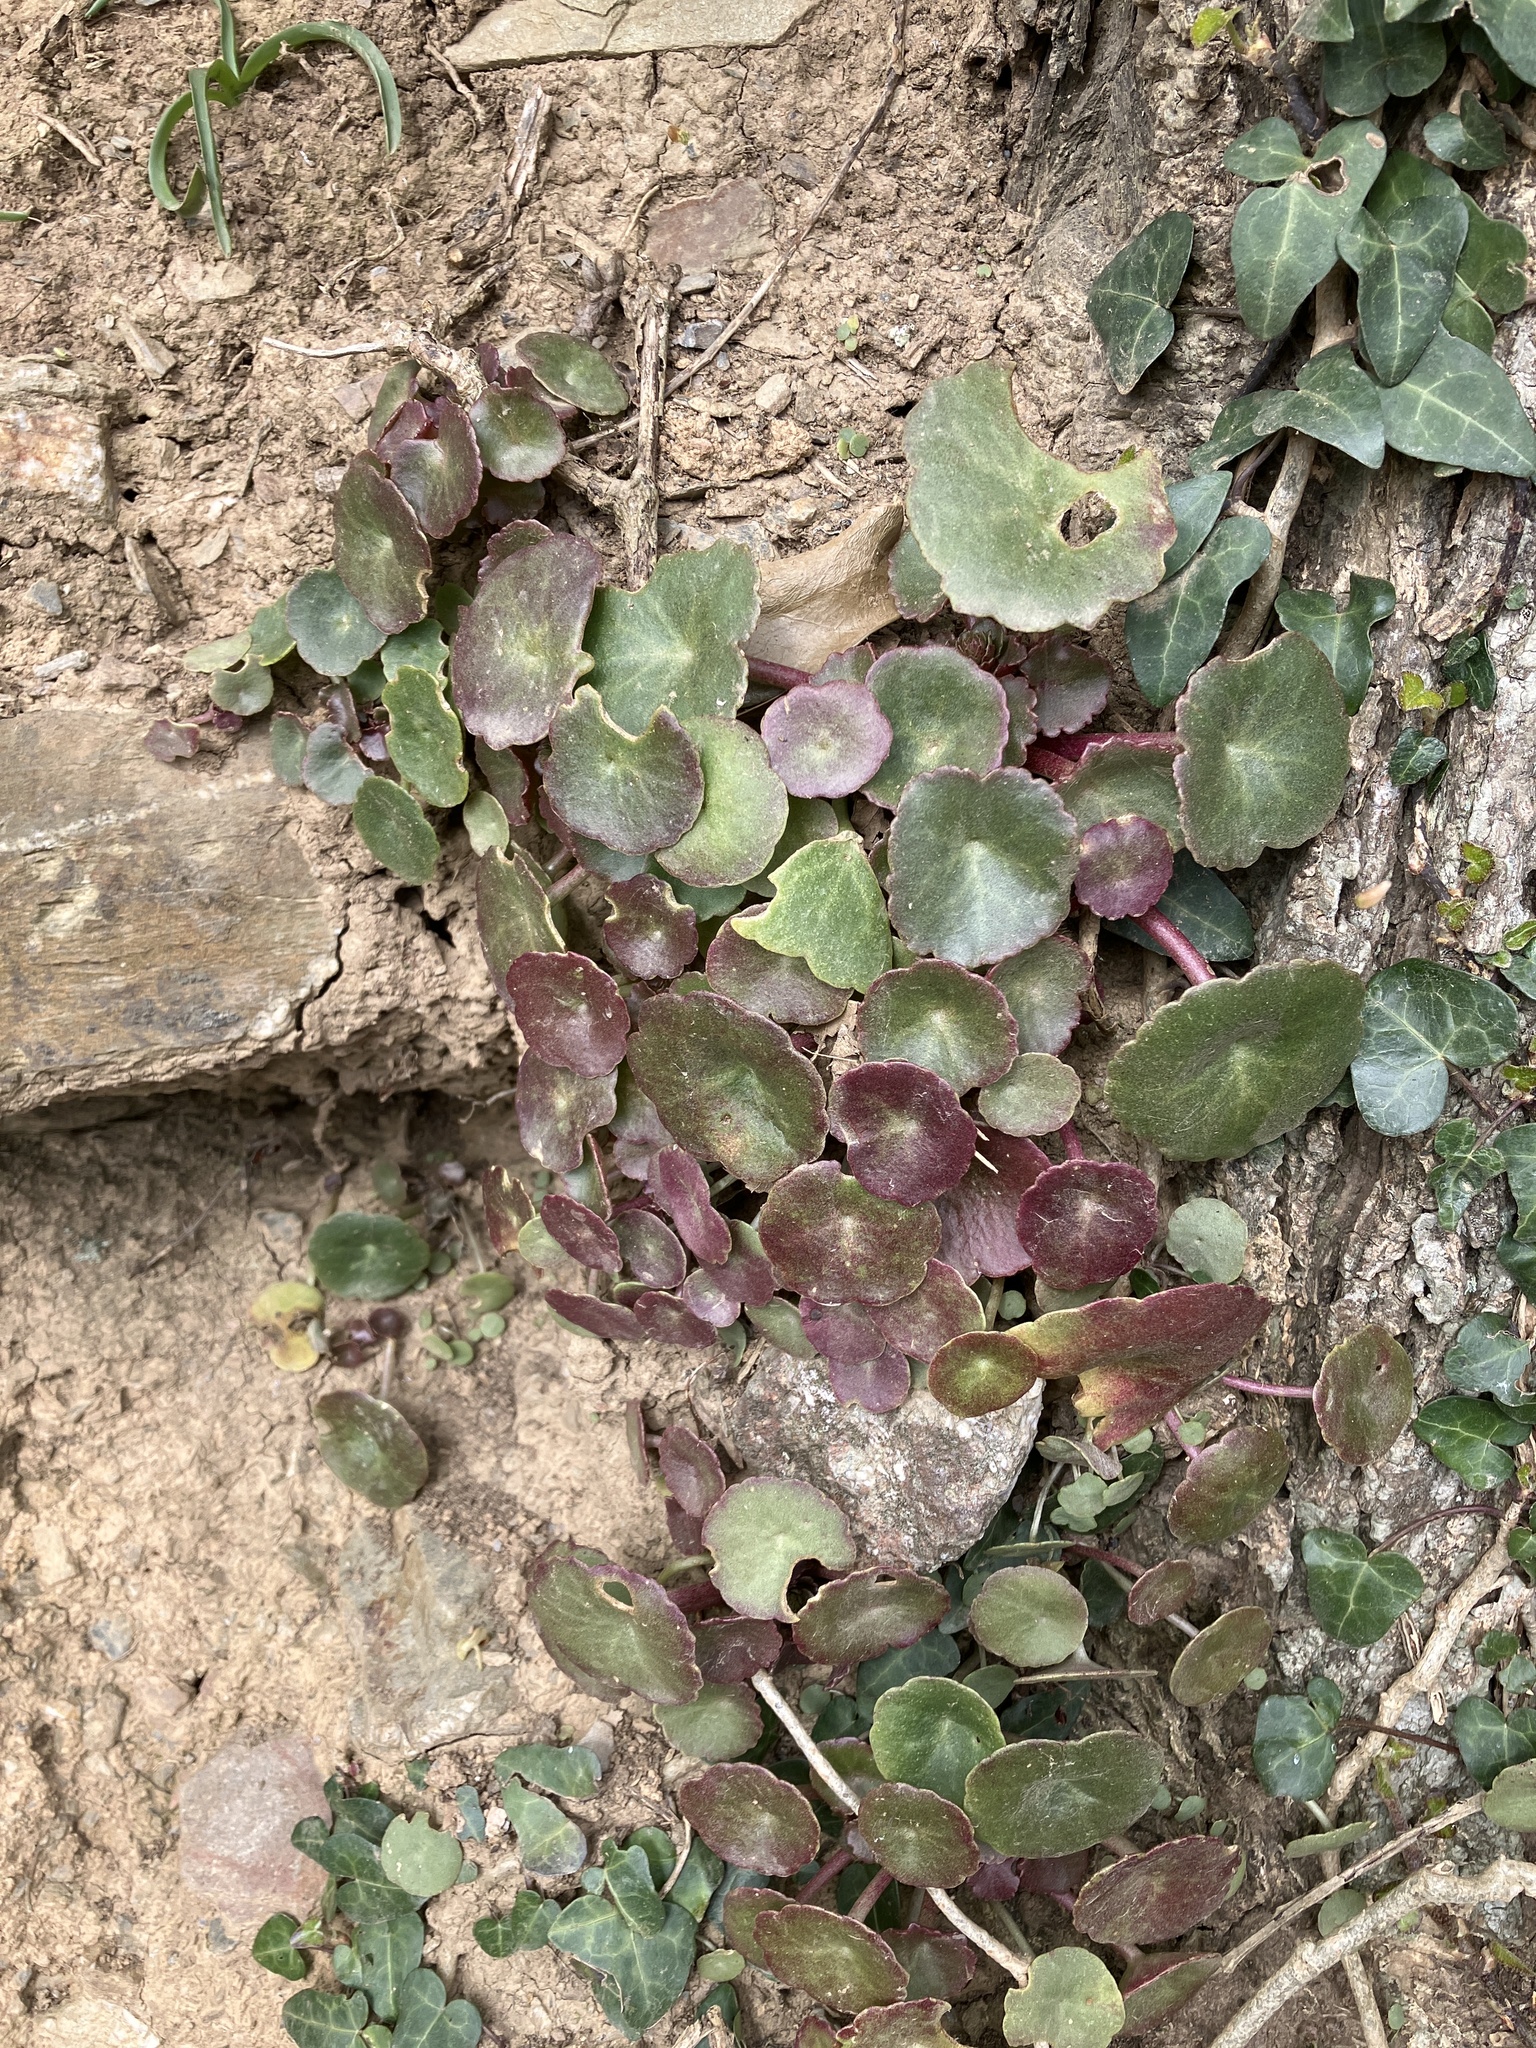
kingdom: Plantae
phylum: Tracheophyta
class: Magnoliopsida
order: Saxifragales
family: Crassulaceae
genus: Umbilicus
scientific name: Umbilicus rupestris
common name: Navelwort
